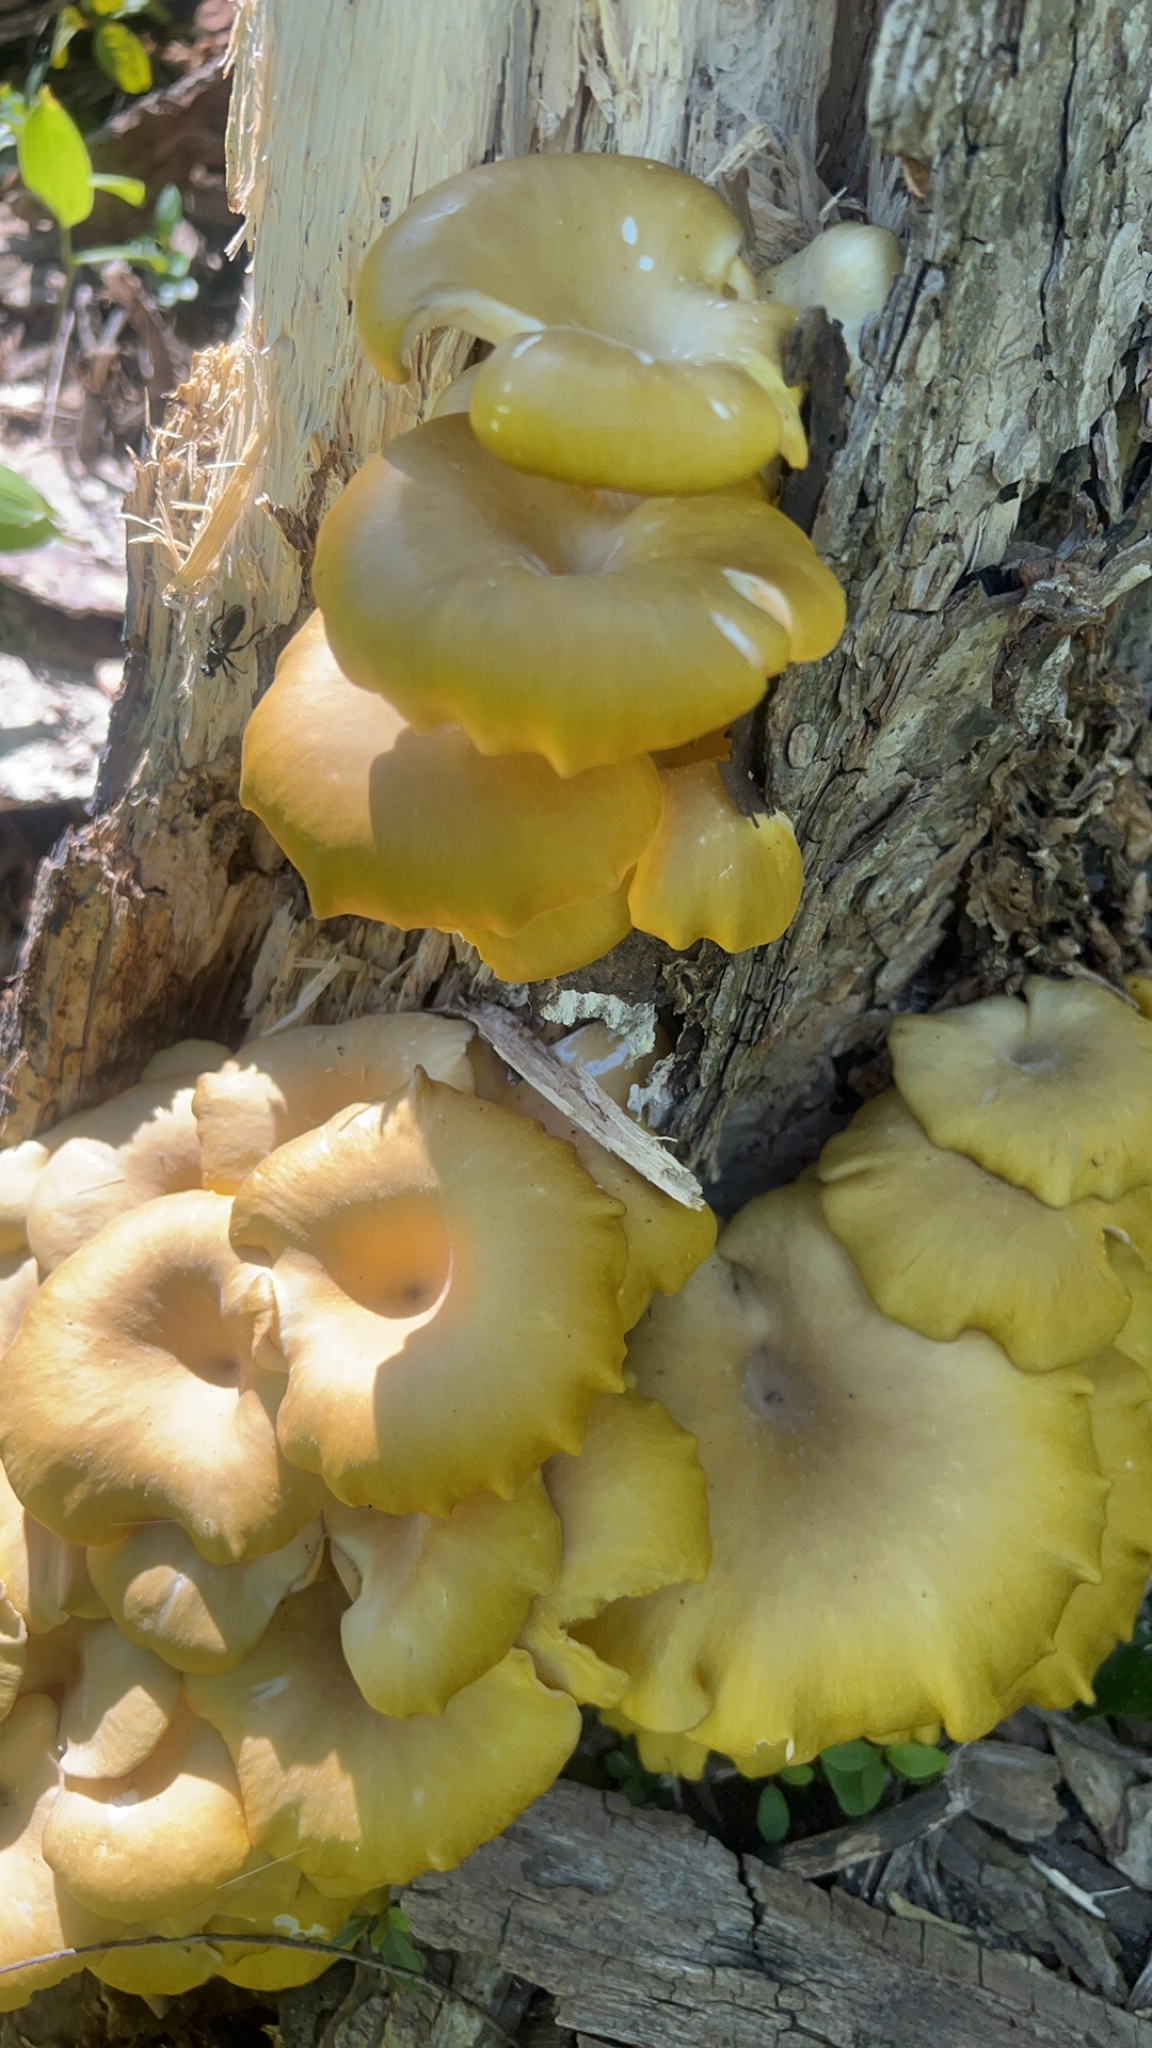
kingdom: Fungi
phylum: Basidiomycota
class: Agaricomycetes
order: Agaricales
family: Pleurotaceae
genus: Pleurotus
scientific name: Pleurotus citrinopileatus
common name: Golden oyster mushroom
